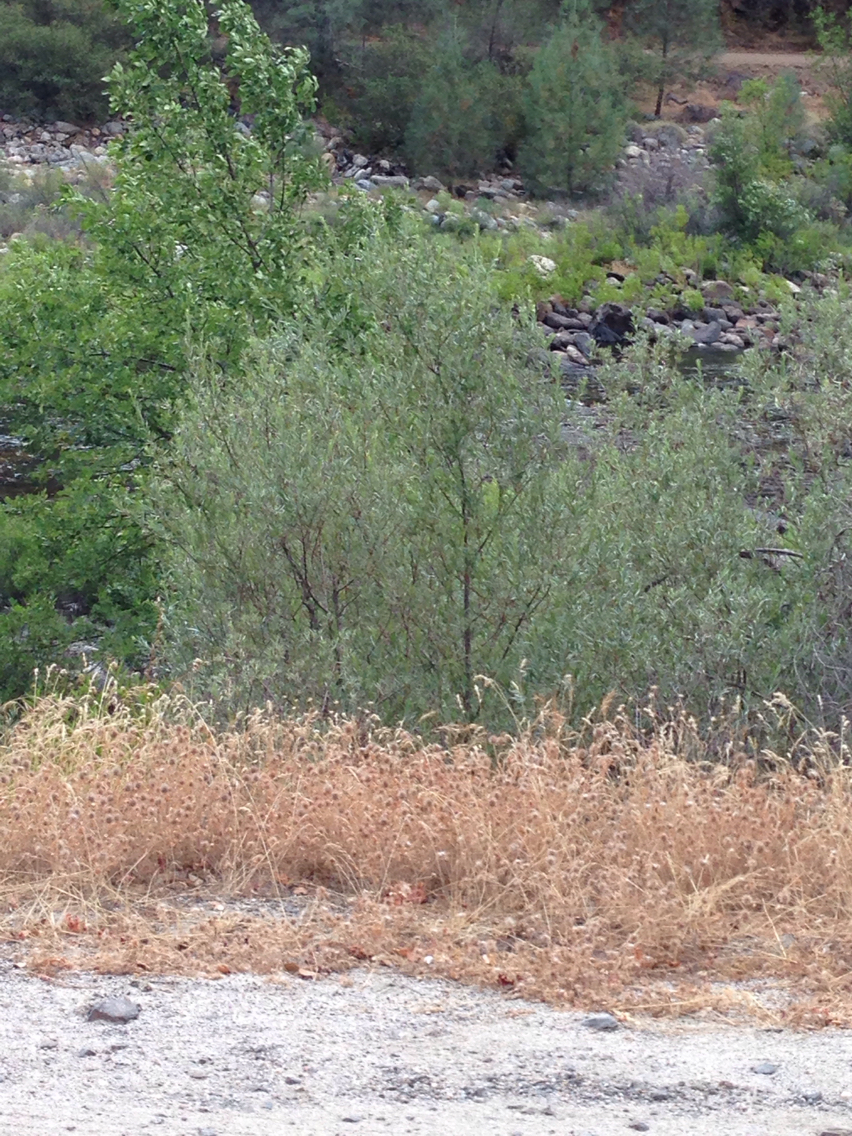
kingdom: Plantae
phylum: Tracheophyta
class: Magnoliopsida
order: Malpighiales
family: Salicaceae
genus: Salix
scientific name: Salix exigua
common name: Coyote willow
